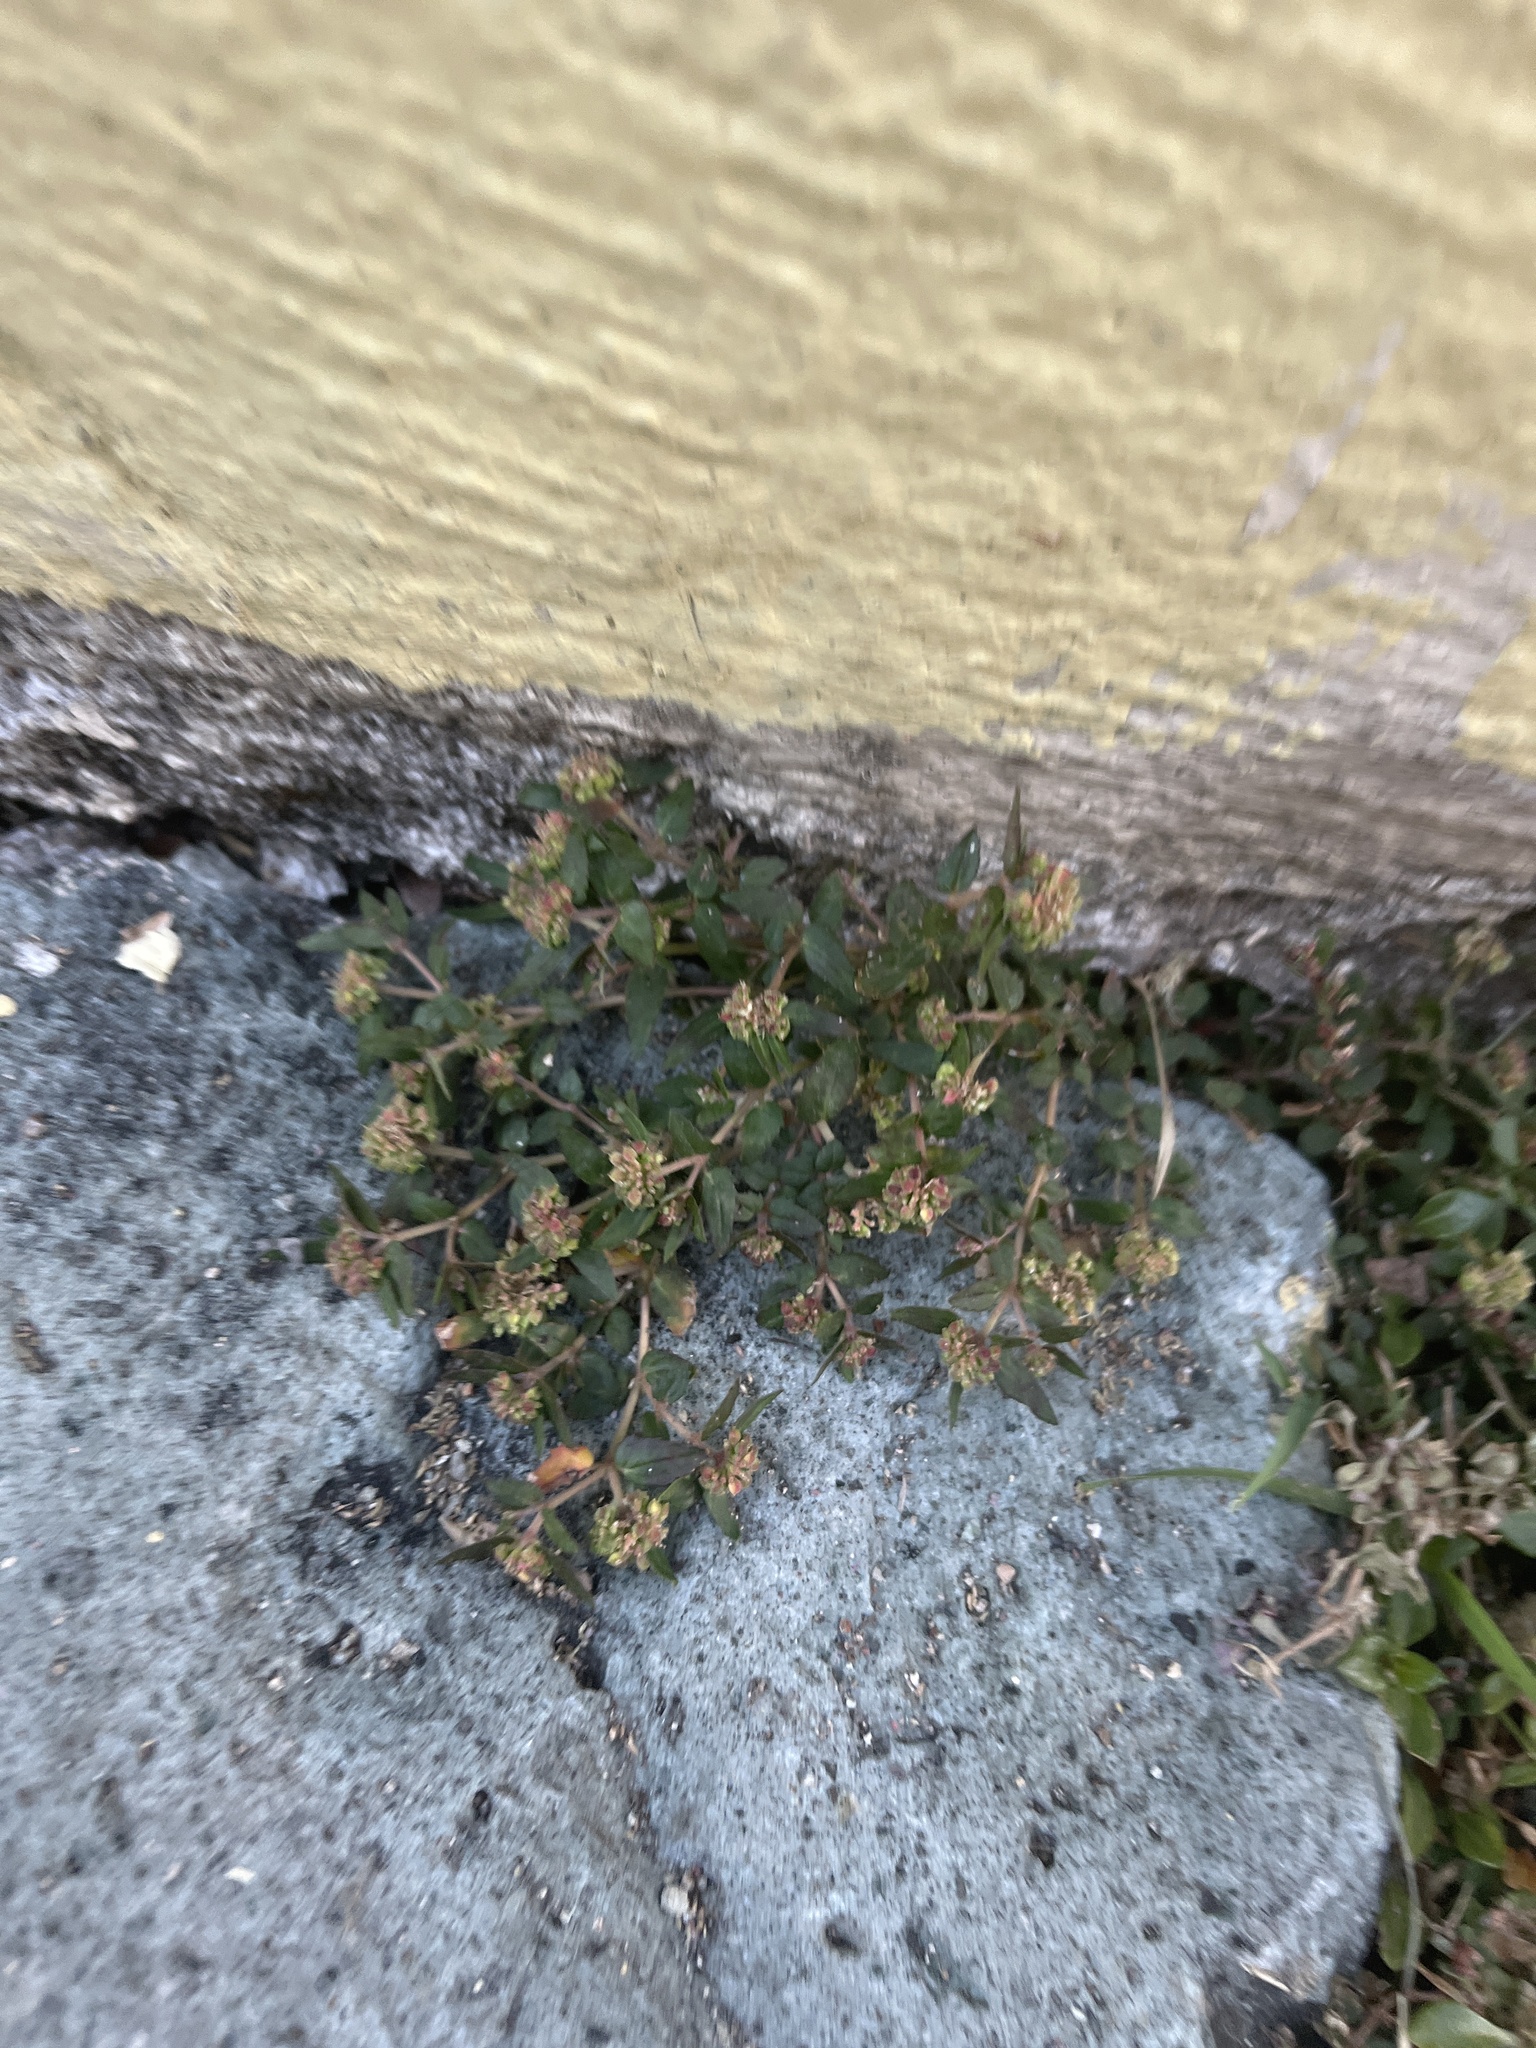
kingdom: Plantae
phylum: Tracheophyta
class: Magnoliopsida
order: Malpighiales
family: Euphorbiaceae
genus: Euphorbia
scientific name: Euphorbia ophthalmica
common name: Florida hammock sandmat
